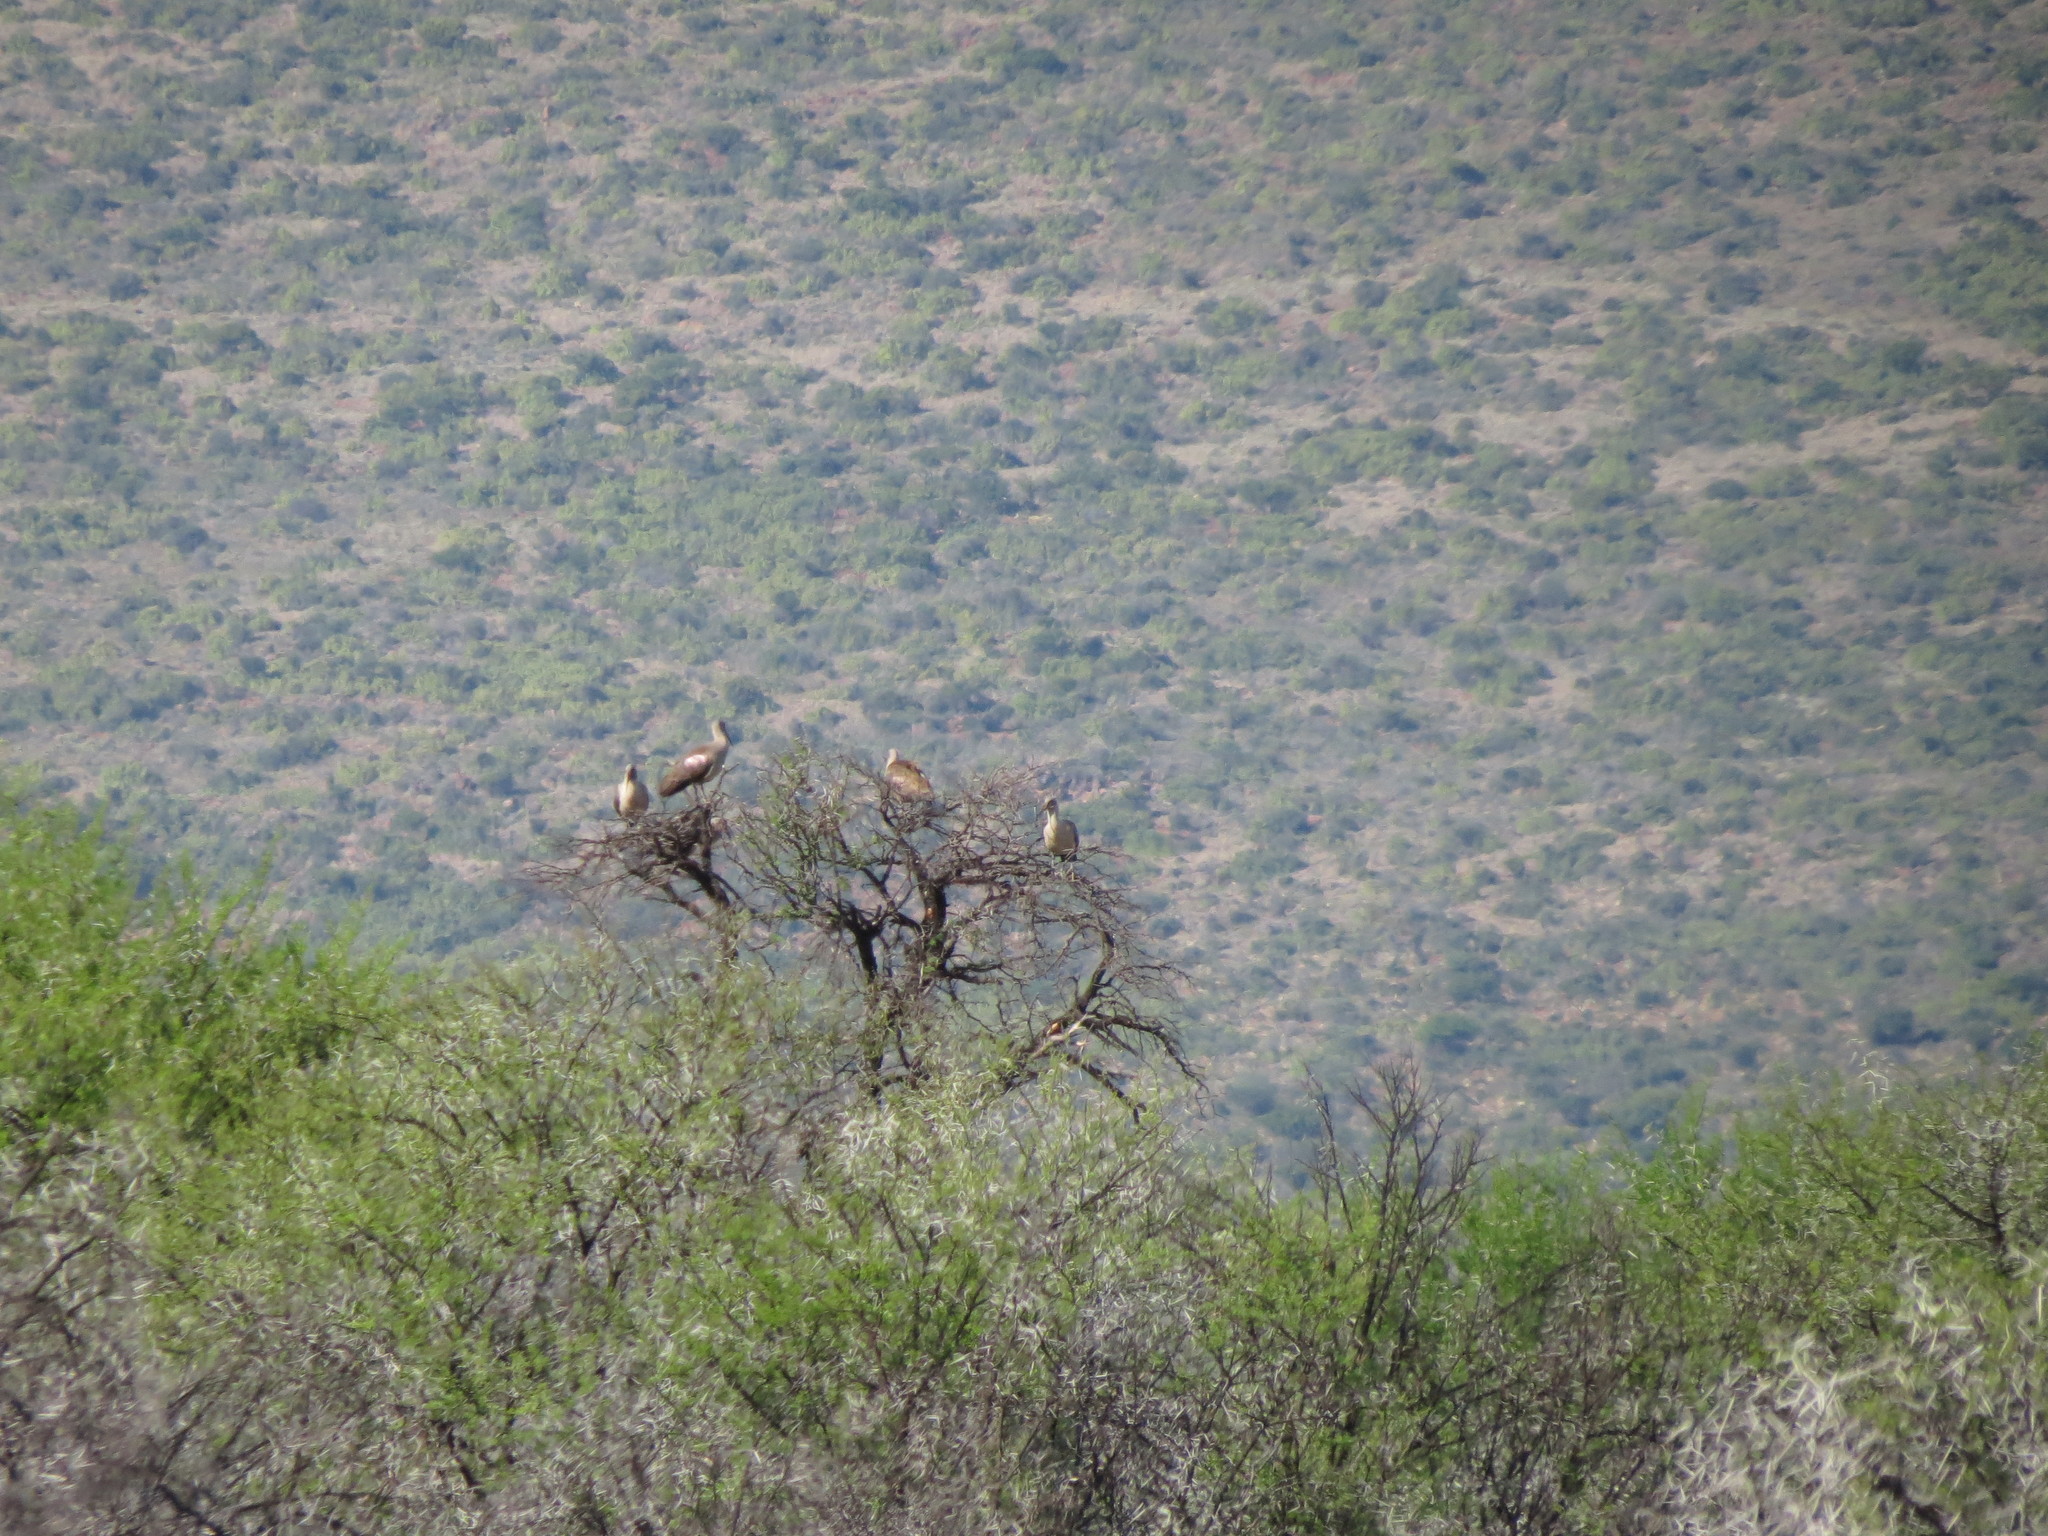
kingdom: Animalia
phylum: Chordata
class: Aves
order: Pelecaniformes
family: Threskiornithidae
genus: Bostrychia
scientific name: Bostrychia hagedash
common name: Hadada ibis
